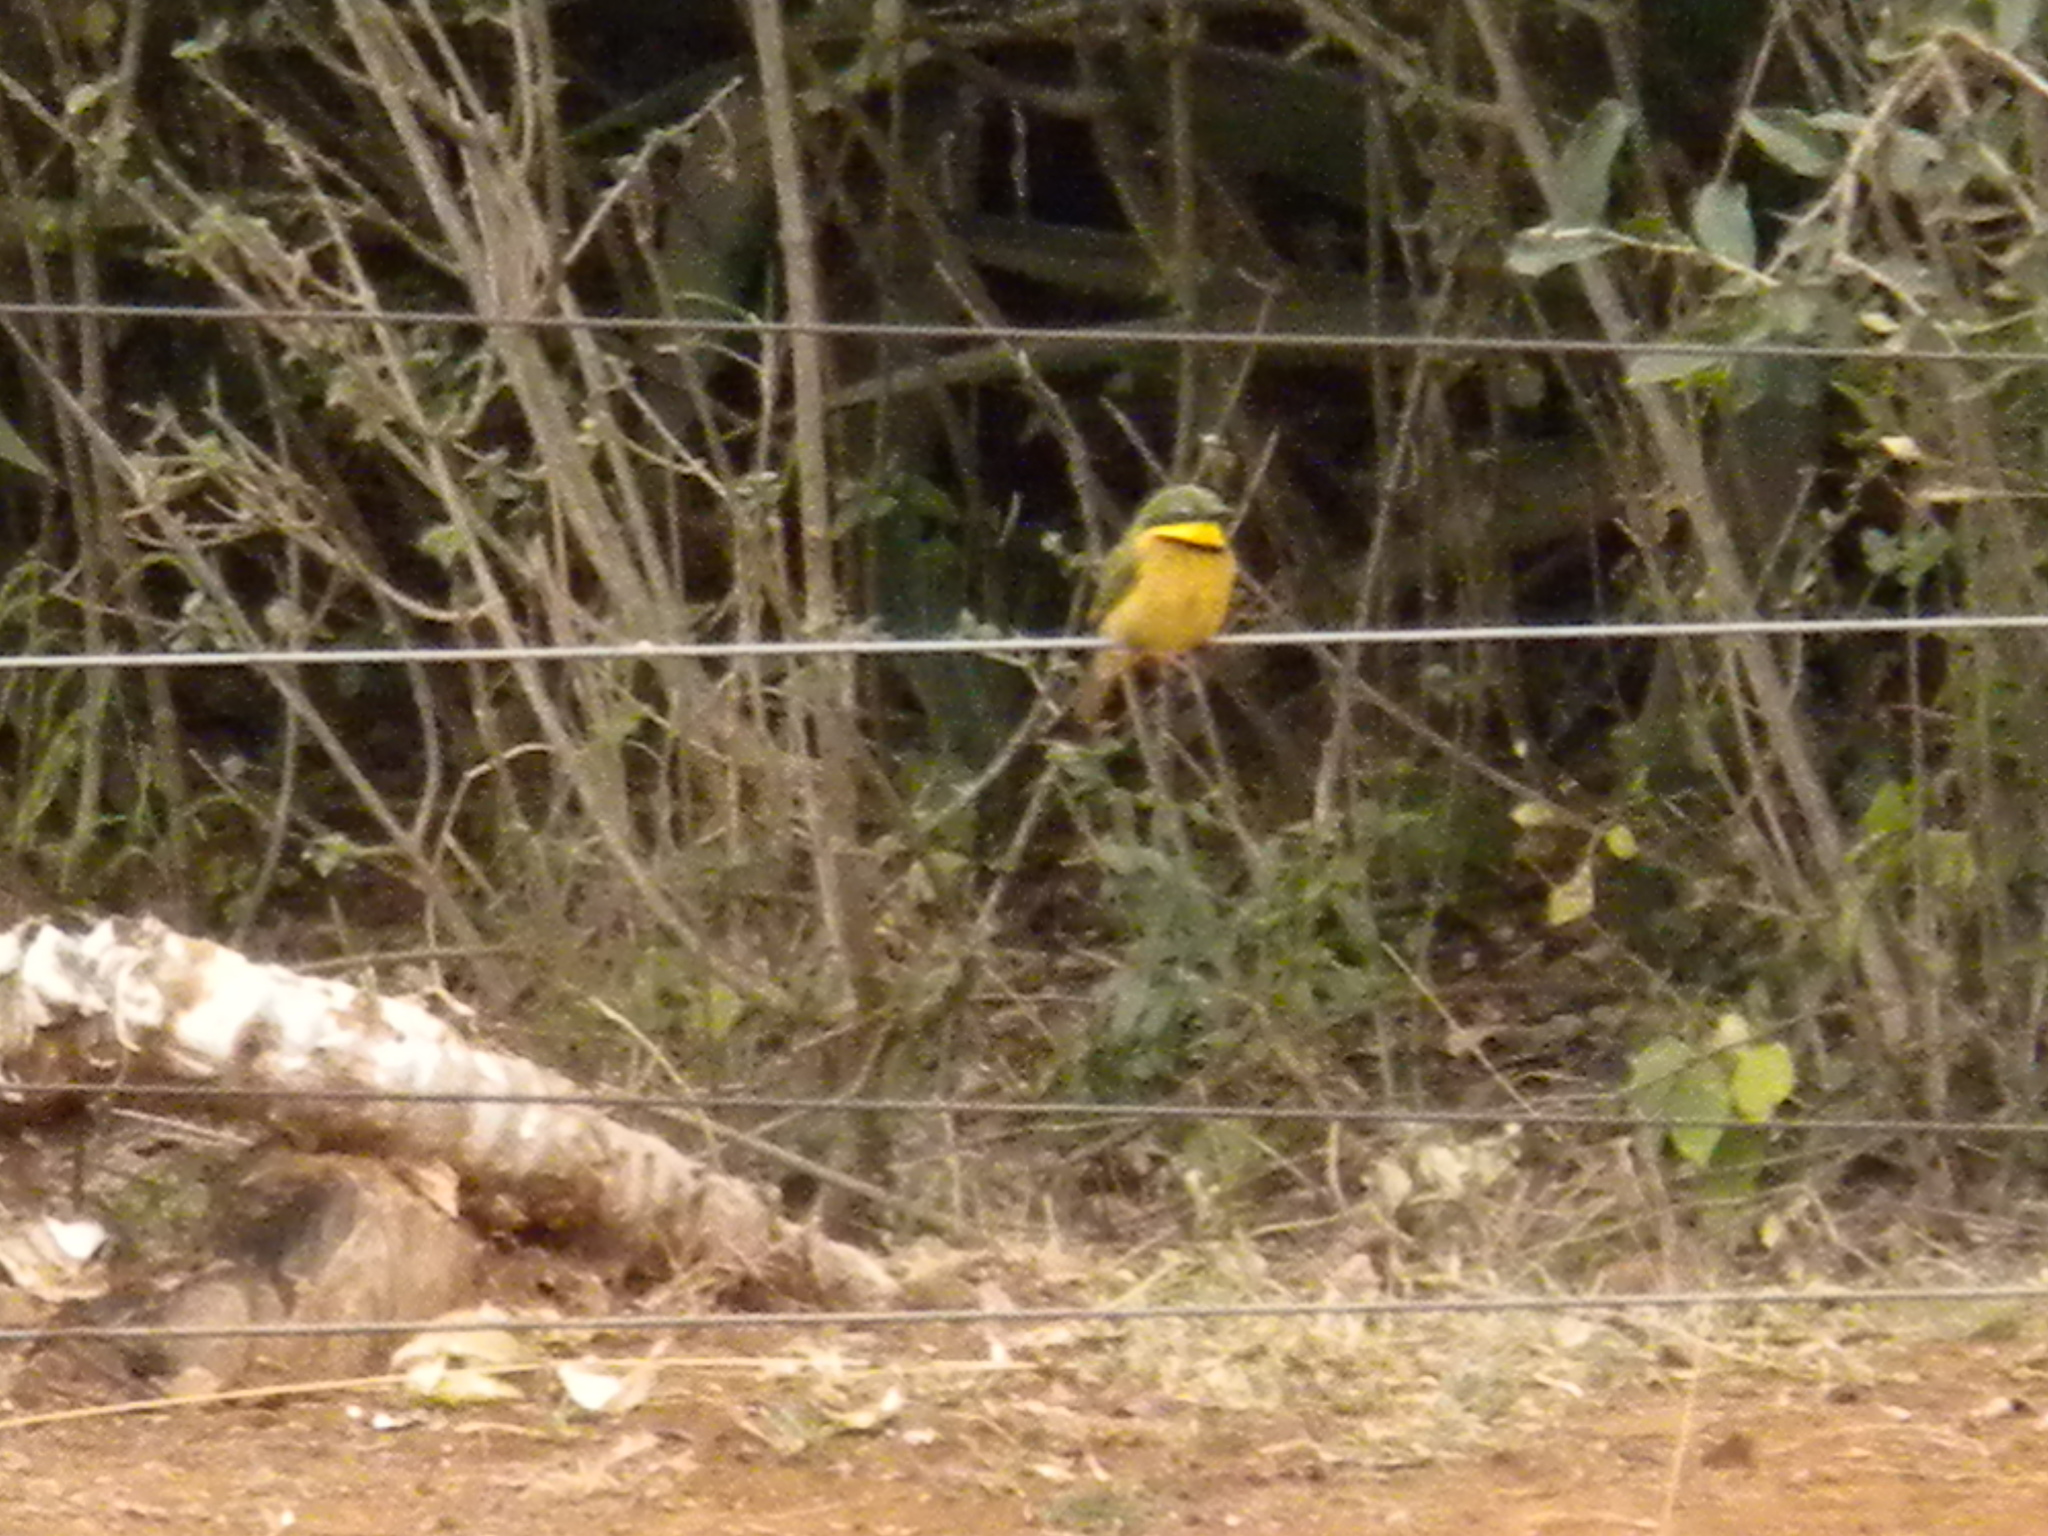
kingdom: Animalia
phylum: Chordata
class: Aves
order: Coraciiformes
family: Meropidae
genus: Merops
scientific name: Merops pusillus
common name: Little bee-eater
